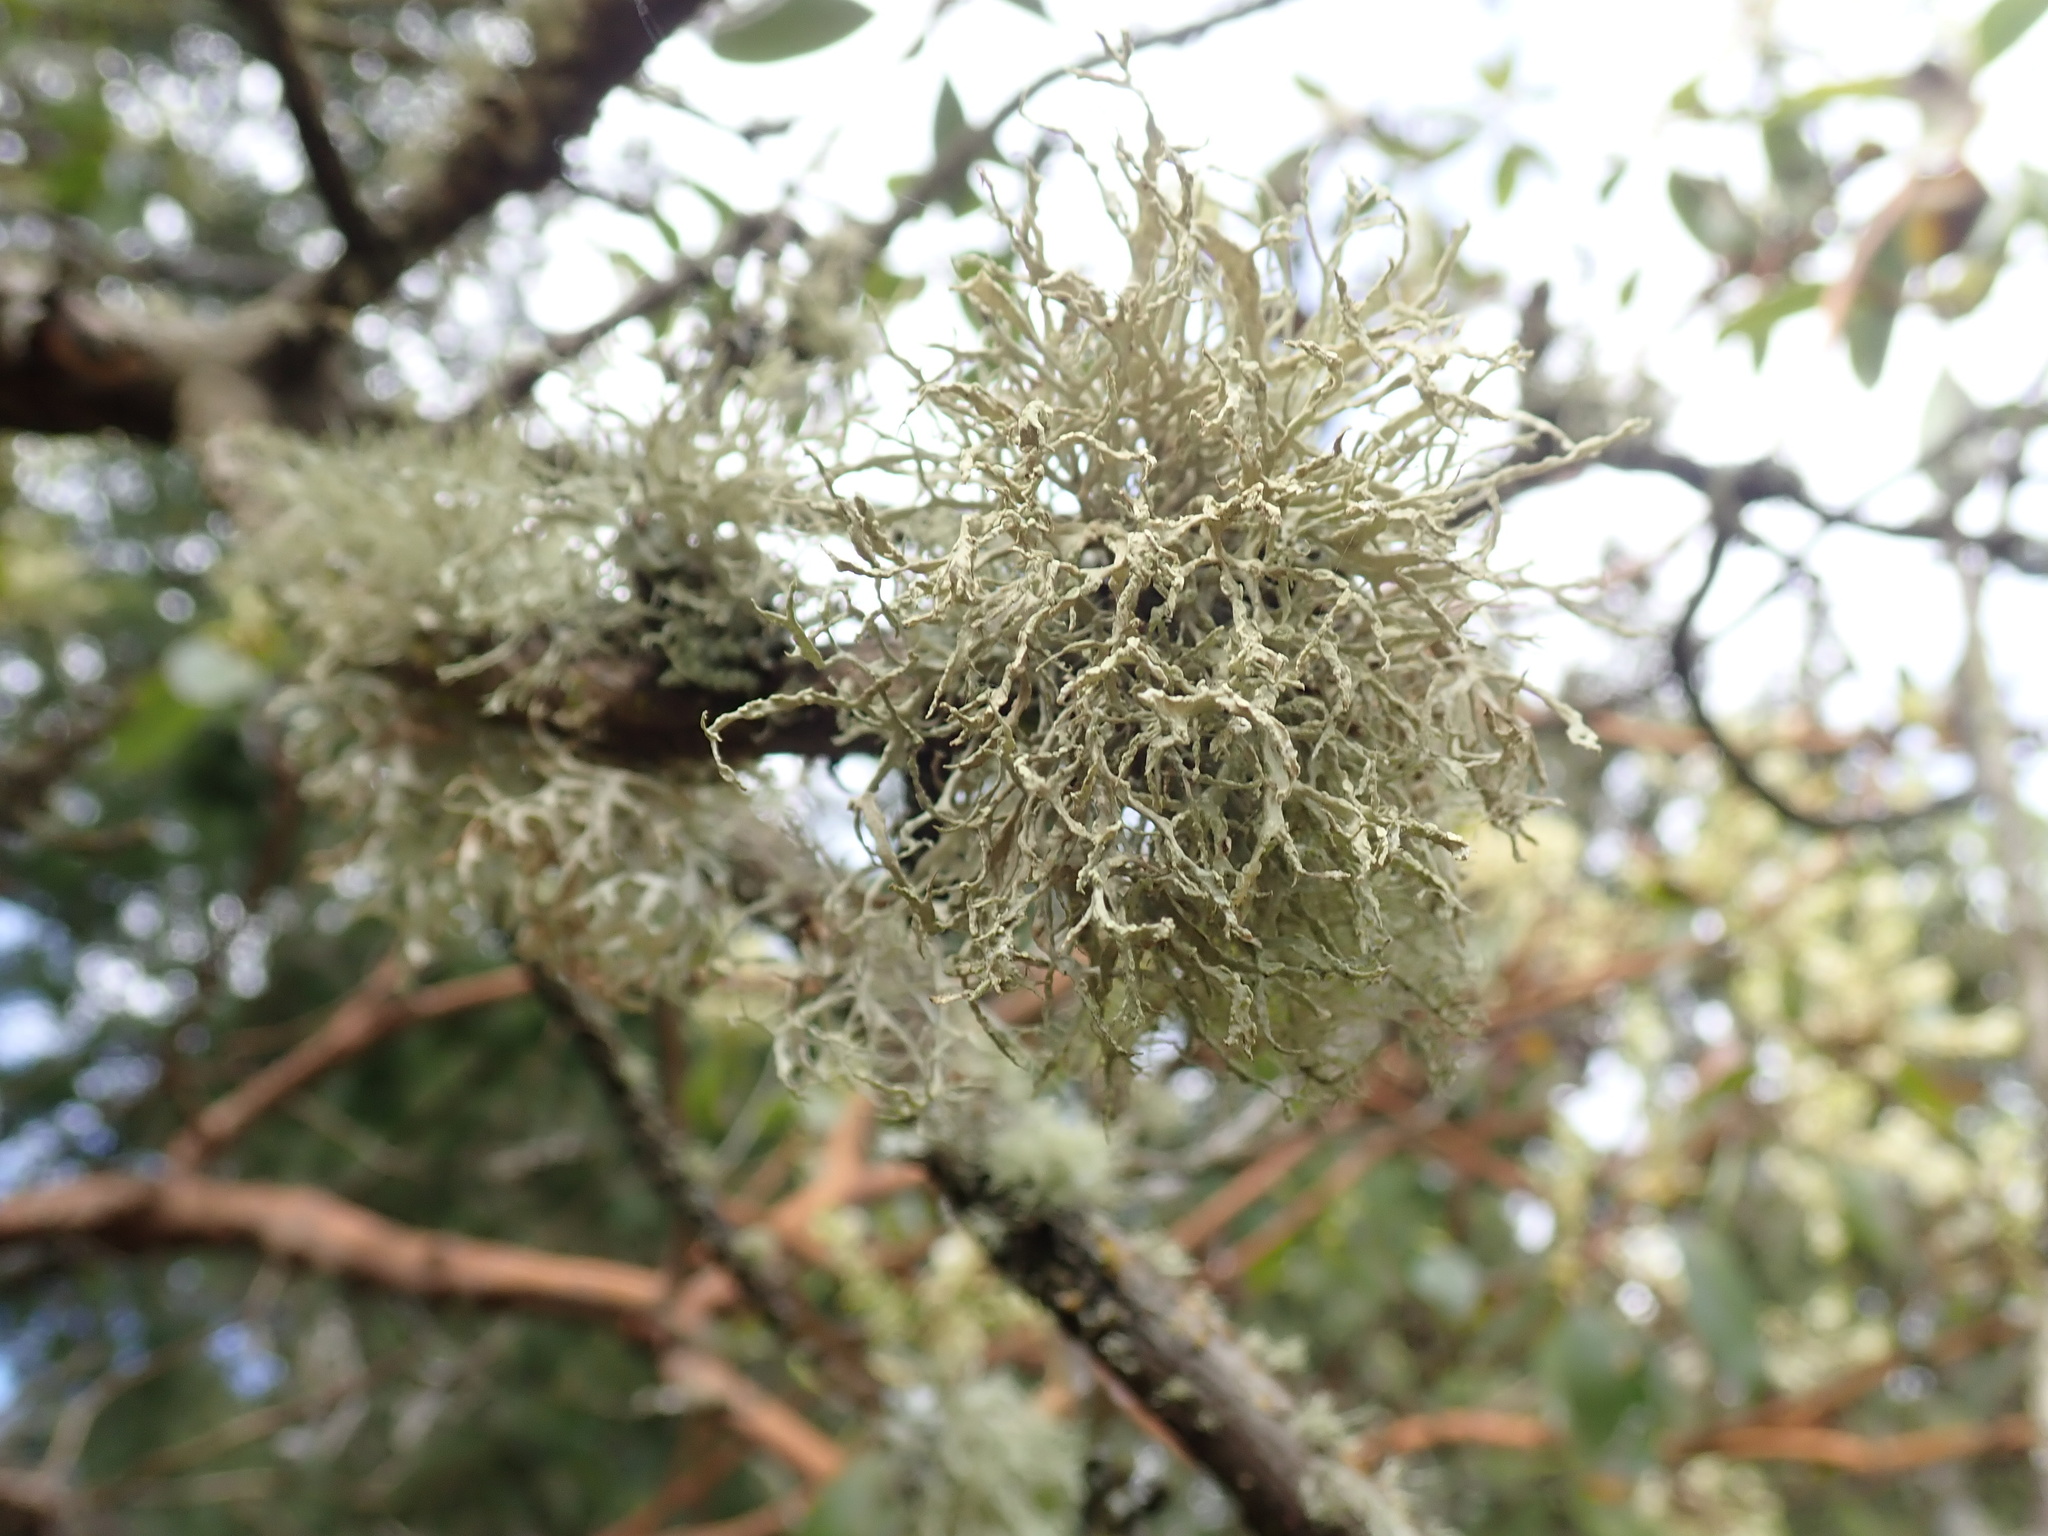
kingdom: Fungi
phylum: Ascomycota
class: Lecanoromycetes
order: Lecanorales
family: Ramalinaceae
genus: Ramalina
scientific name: Ramalina farinacea
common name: Farinose cartilage lichen
